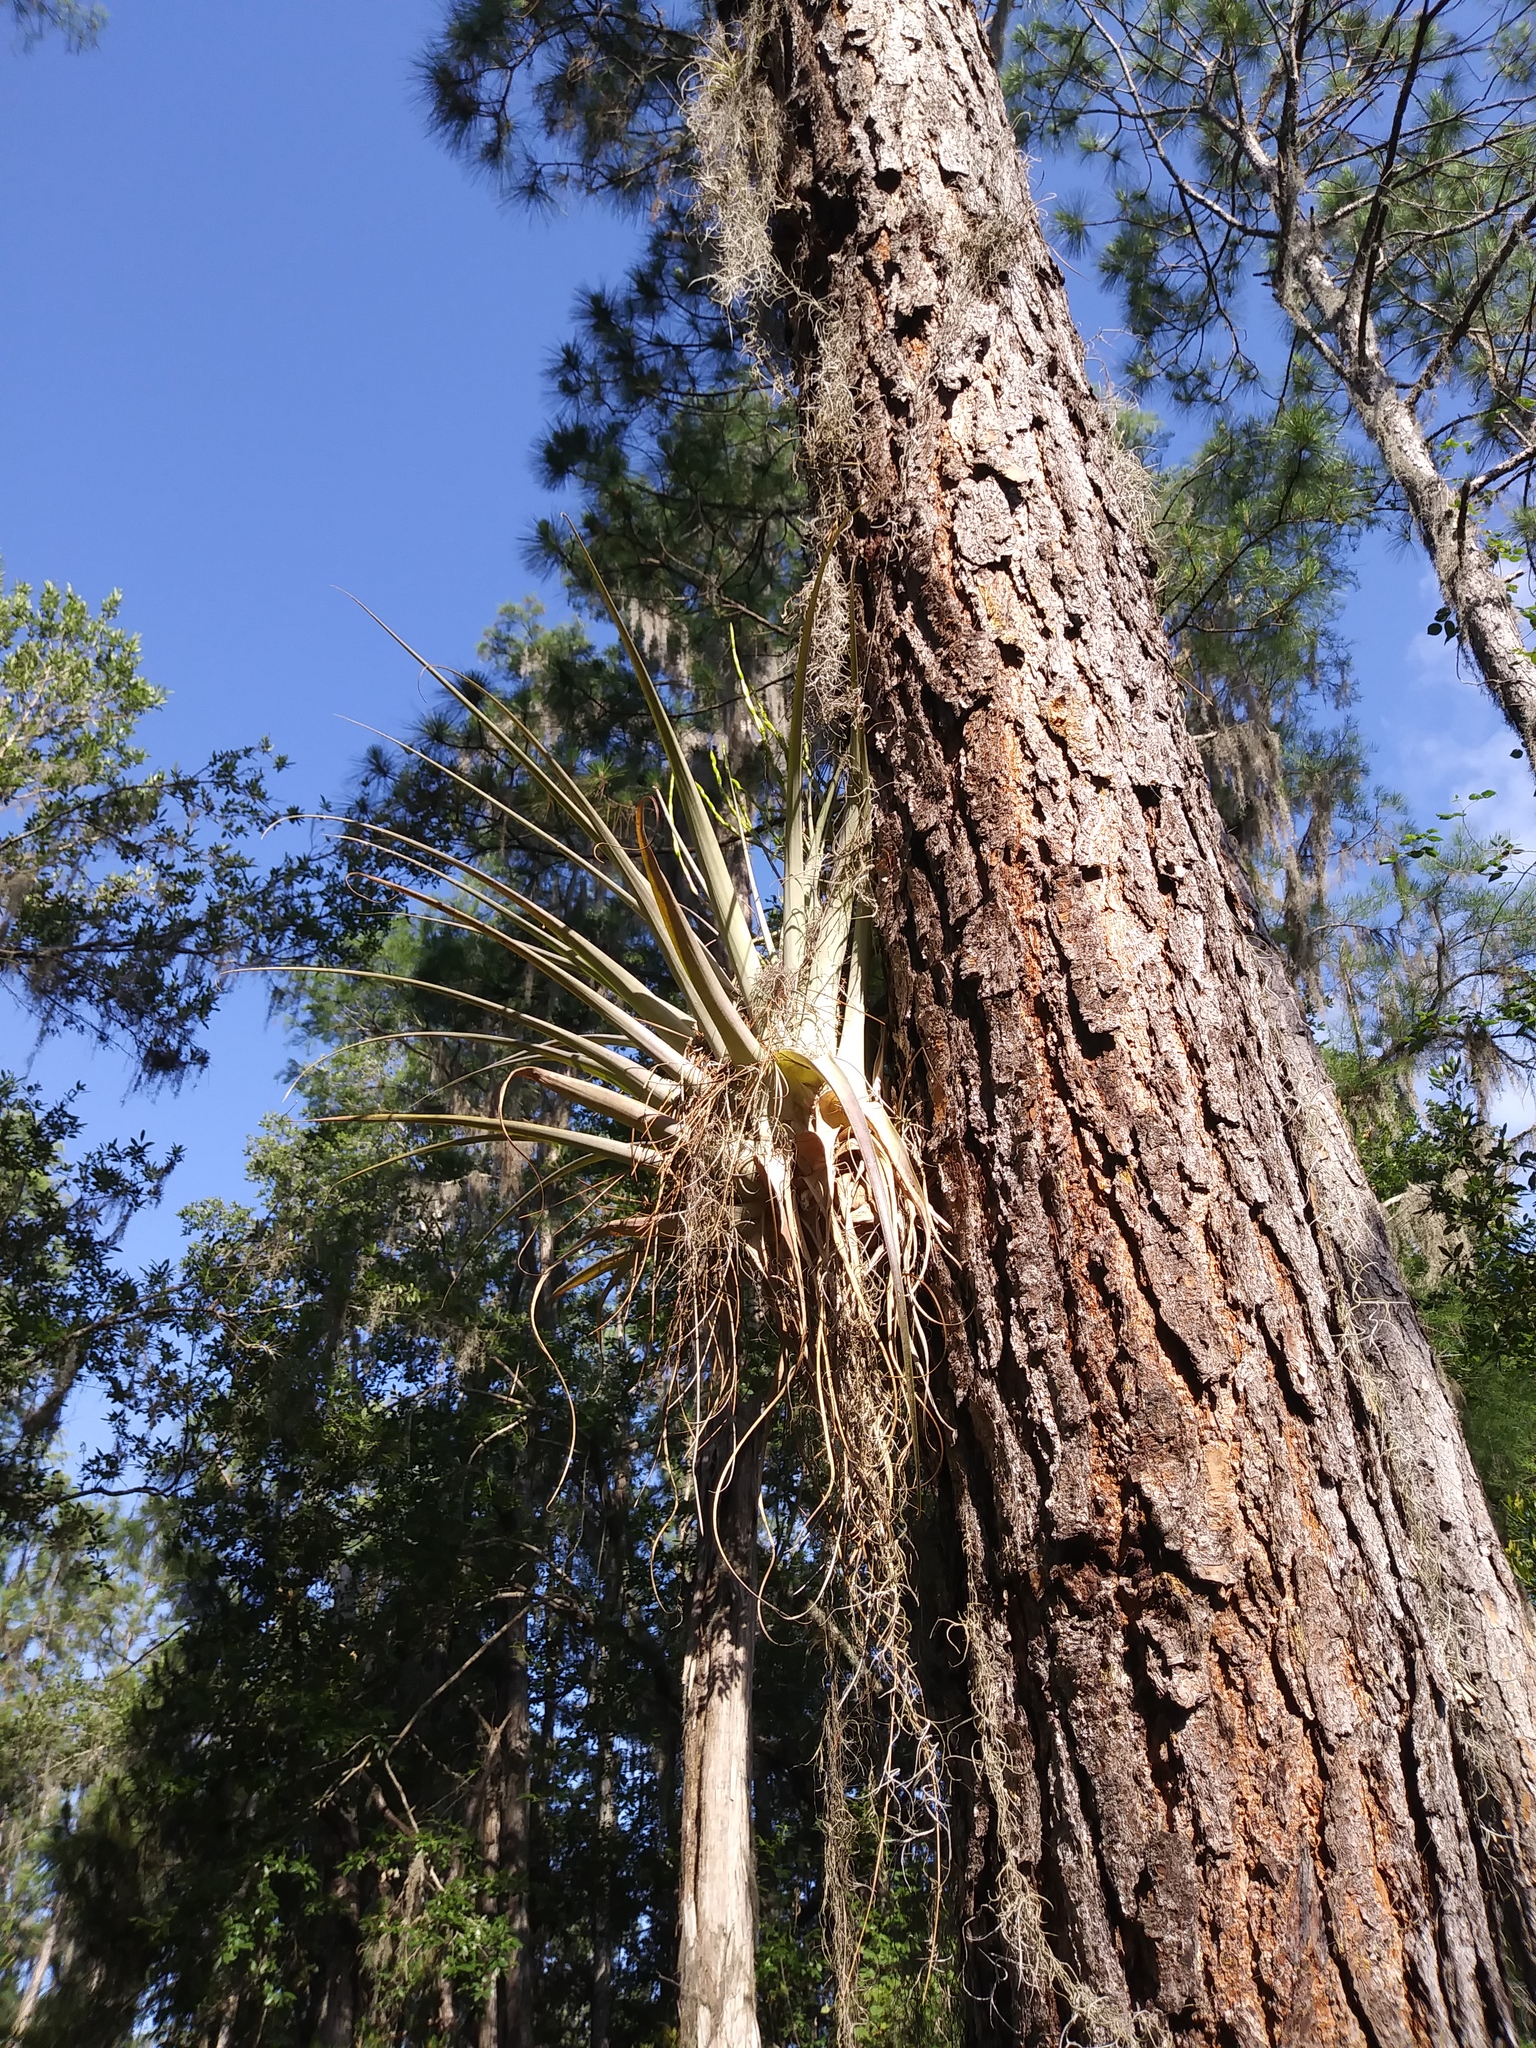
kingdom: Plantae
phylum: Tracheophyta
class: Liliopsida
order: Poales
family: Bromeliaceae
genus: Tillandsia
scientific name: Tillandsia utriculata
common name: Wild pine
